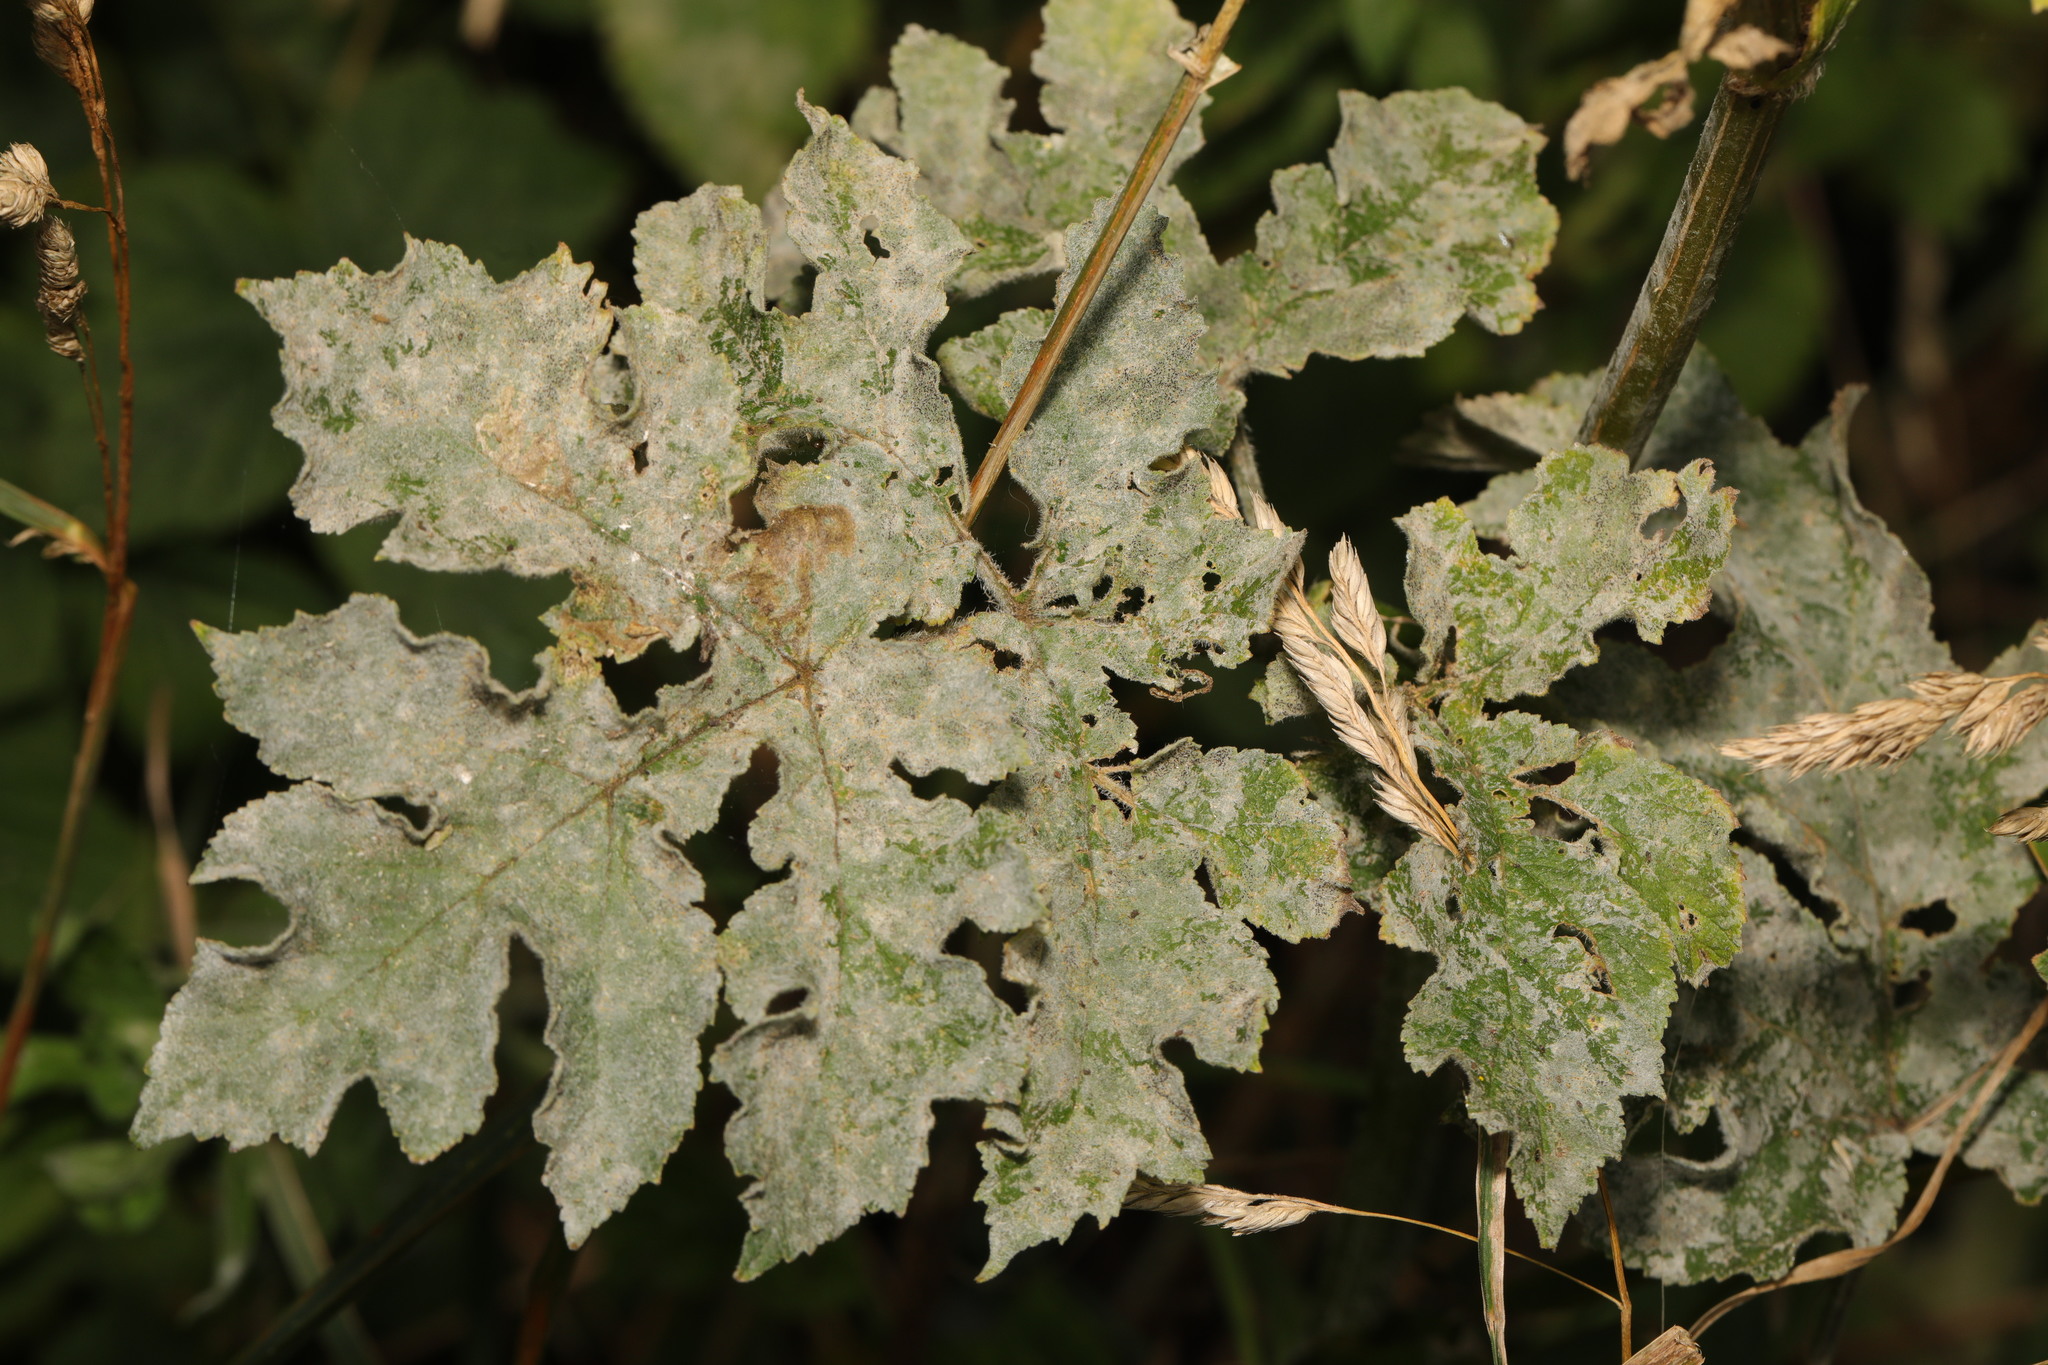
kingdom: Fungi
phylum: Ascomycota
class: Leotiomycetes
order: Helotiales
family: Erysiphaceae
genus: Erysiphe
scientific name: Erysiphe heraclei
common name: Umbellifer mildew
